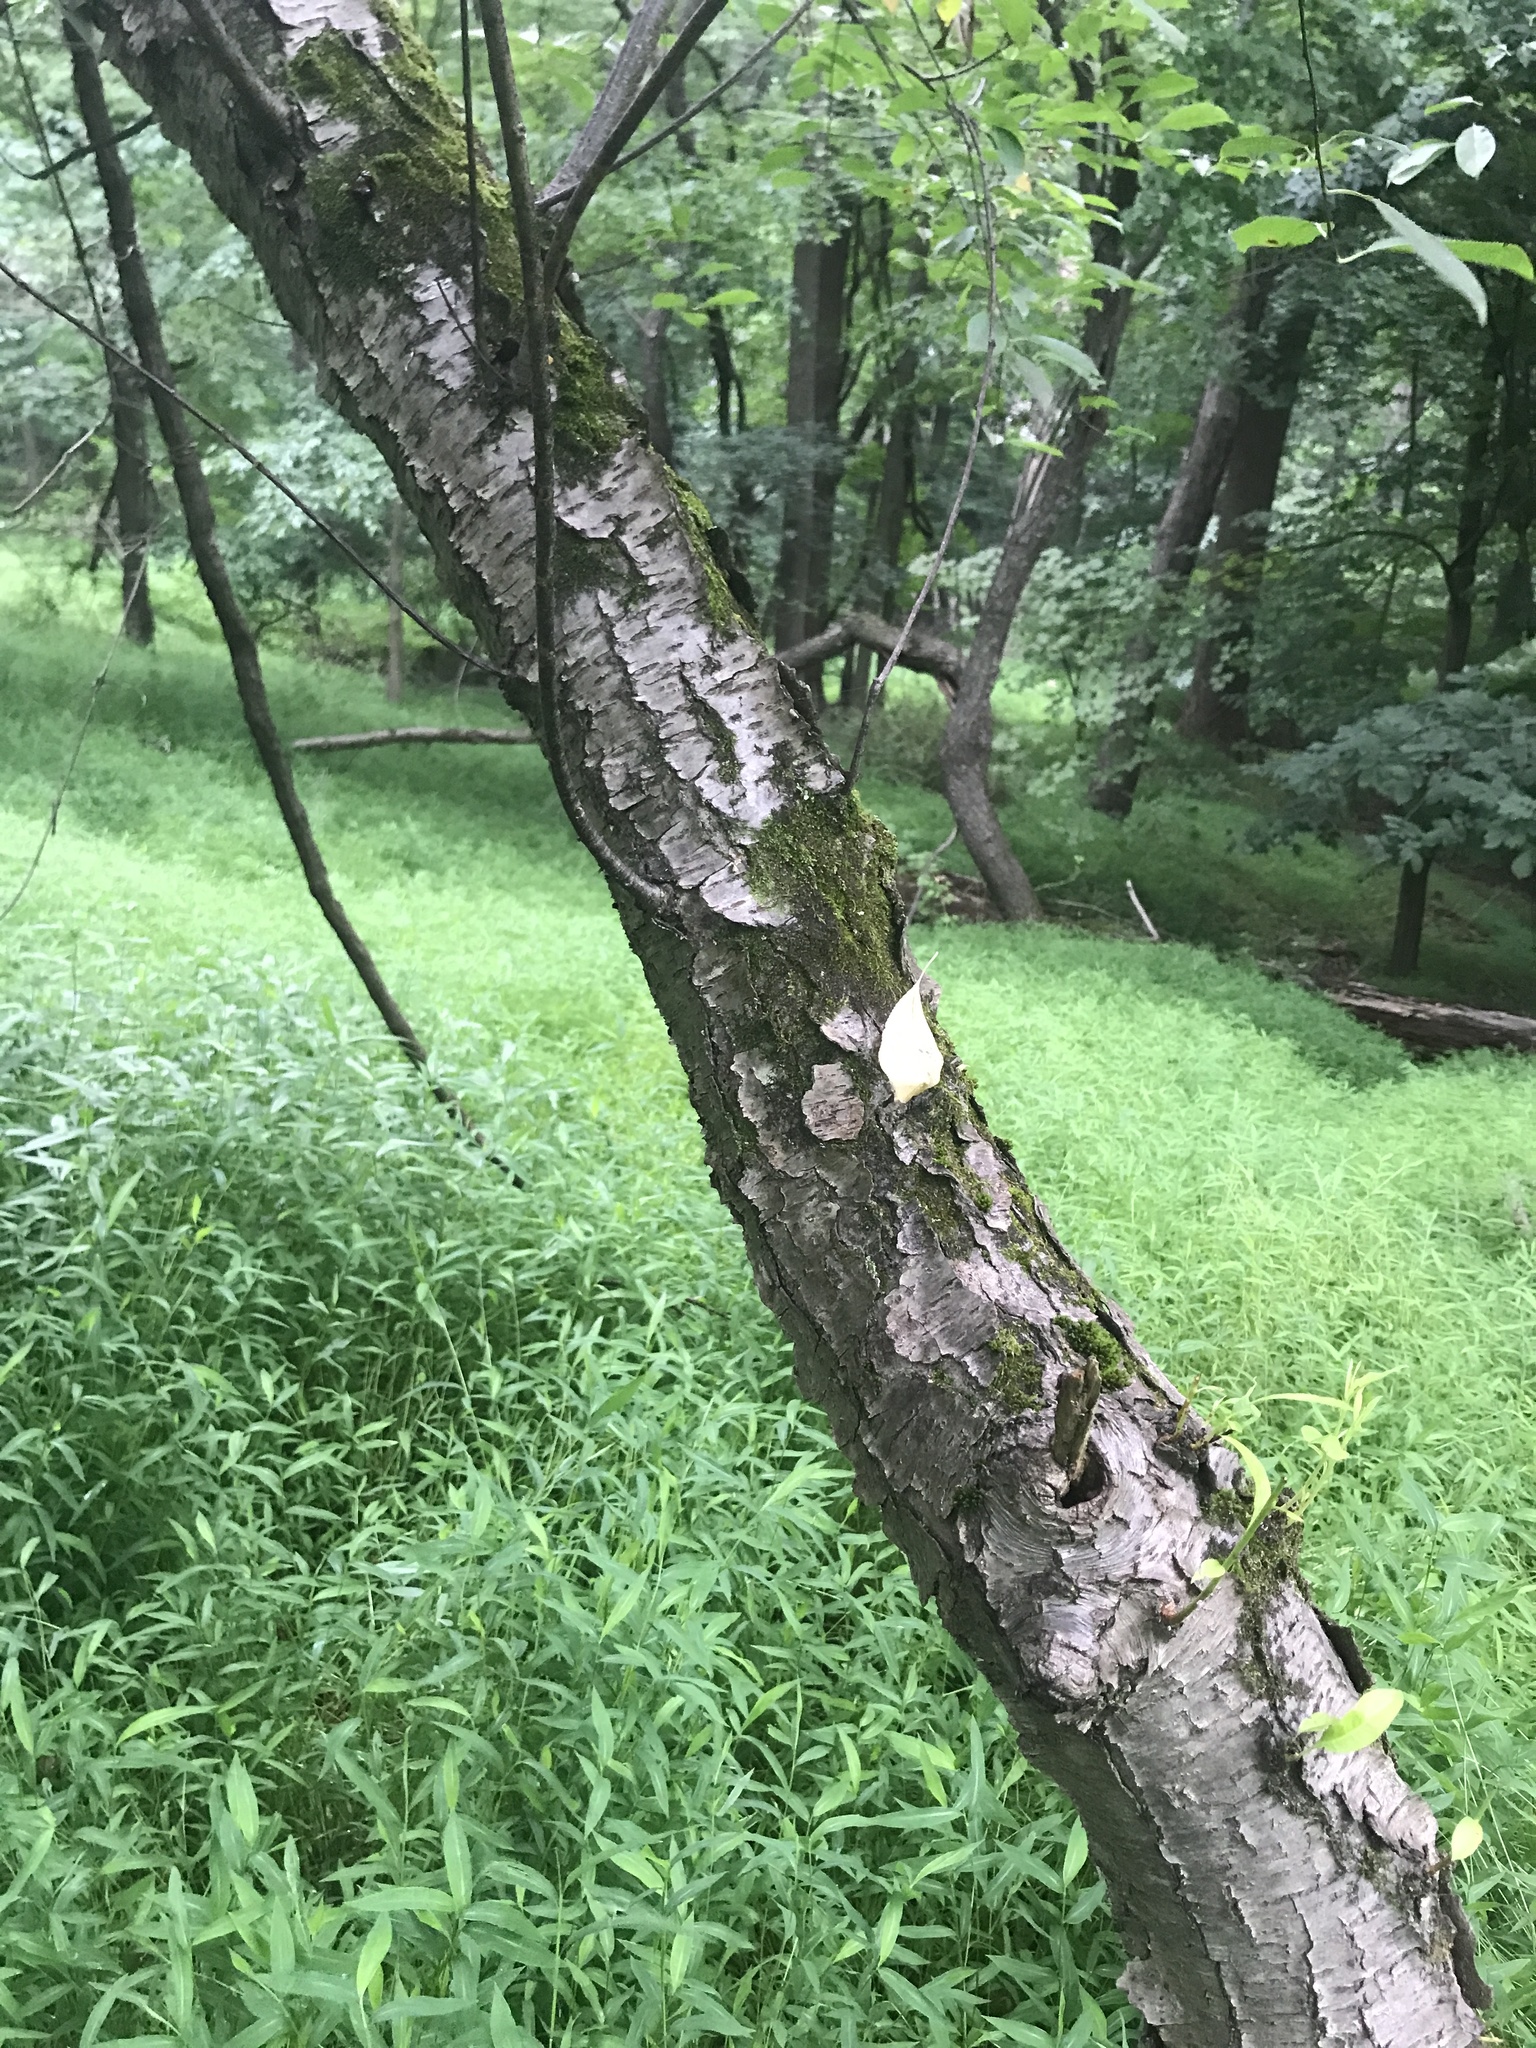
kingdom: Plantae
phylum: Tracheophyta
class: Magnoliopsida
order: Rosales
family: Rosaceae
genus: Prunus
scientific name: Prunus serotina
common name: Black cherry
